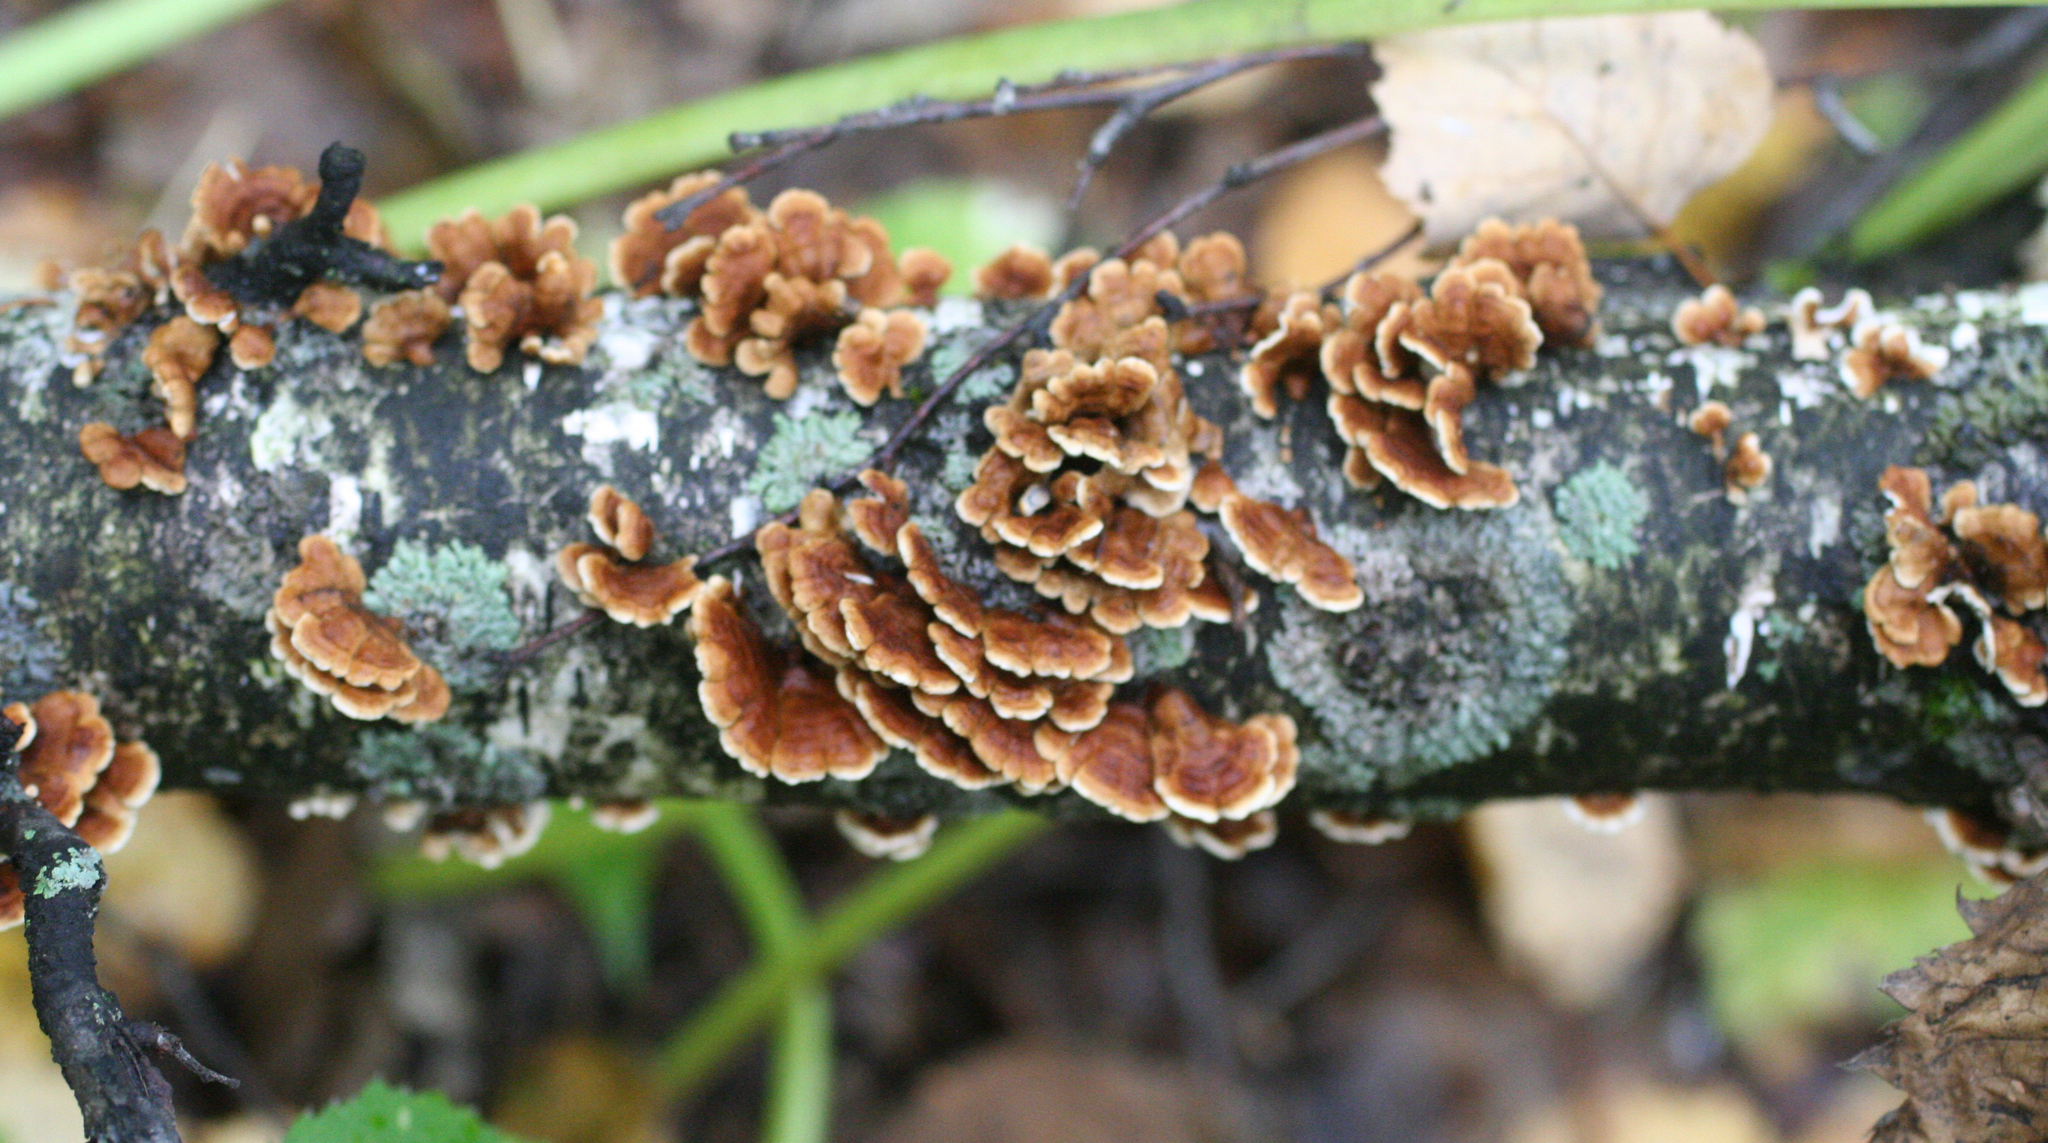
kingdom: Fungi
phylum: Basidiomycota
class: Agaricomycetes
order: Amylocorticiales
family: Amylocorticiaceae
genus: Plicaturopsis
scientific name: Plicaturopsis crispa
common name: Crimped gill
